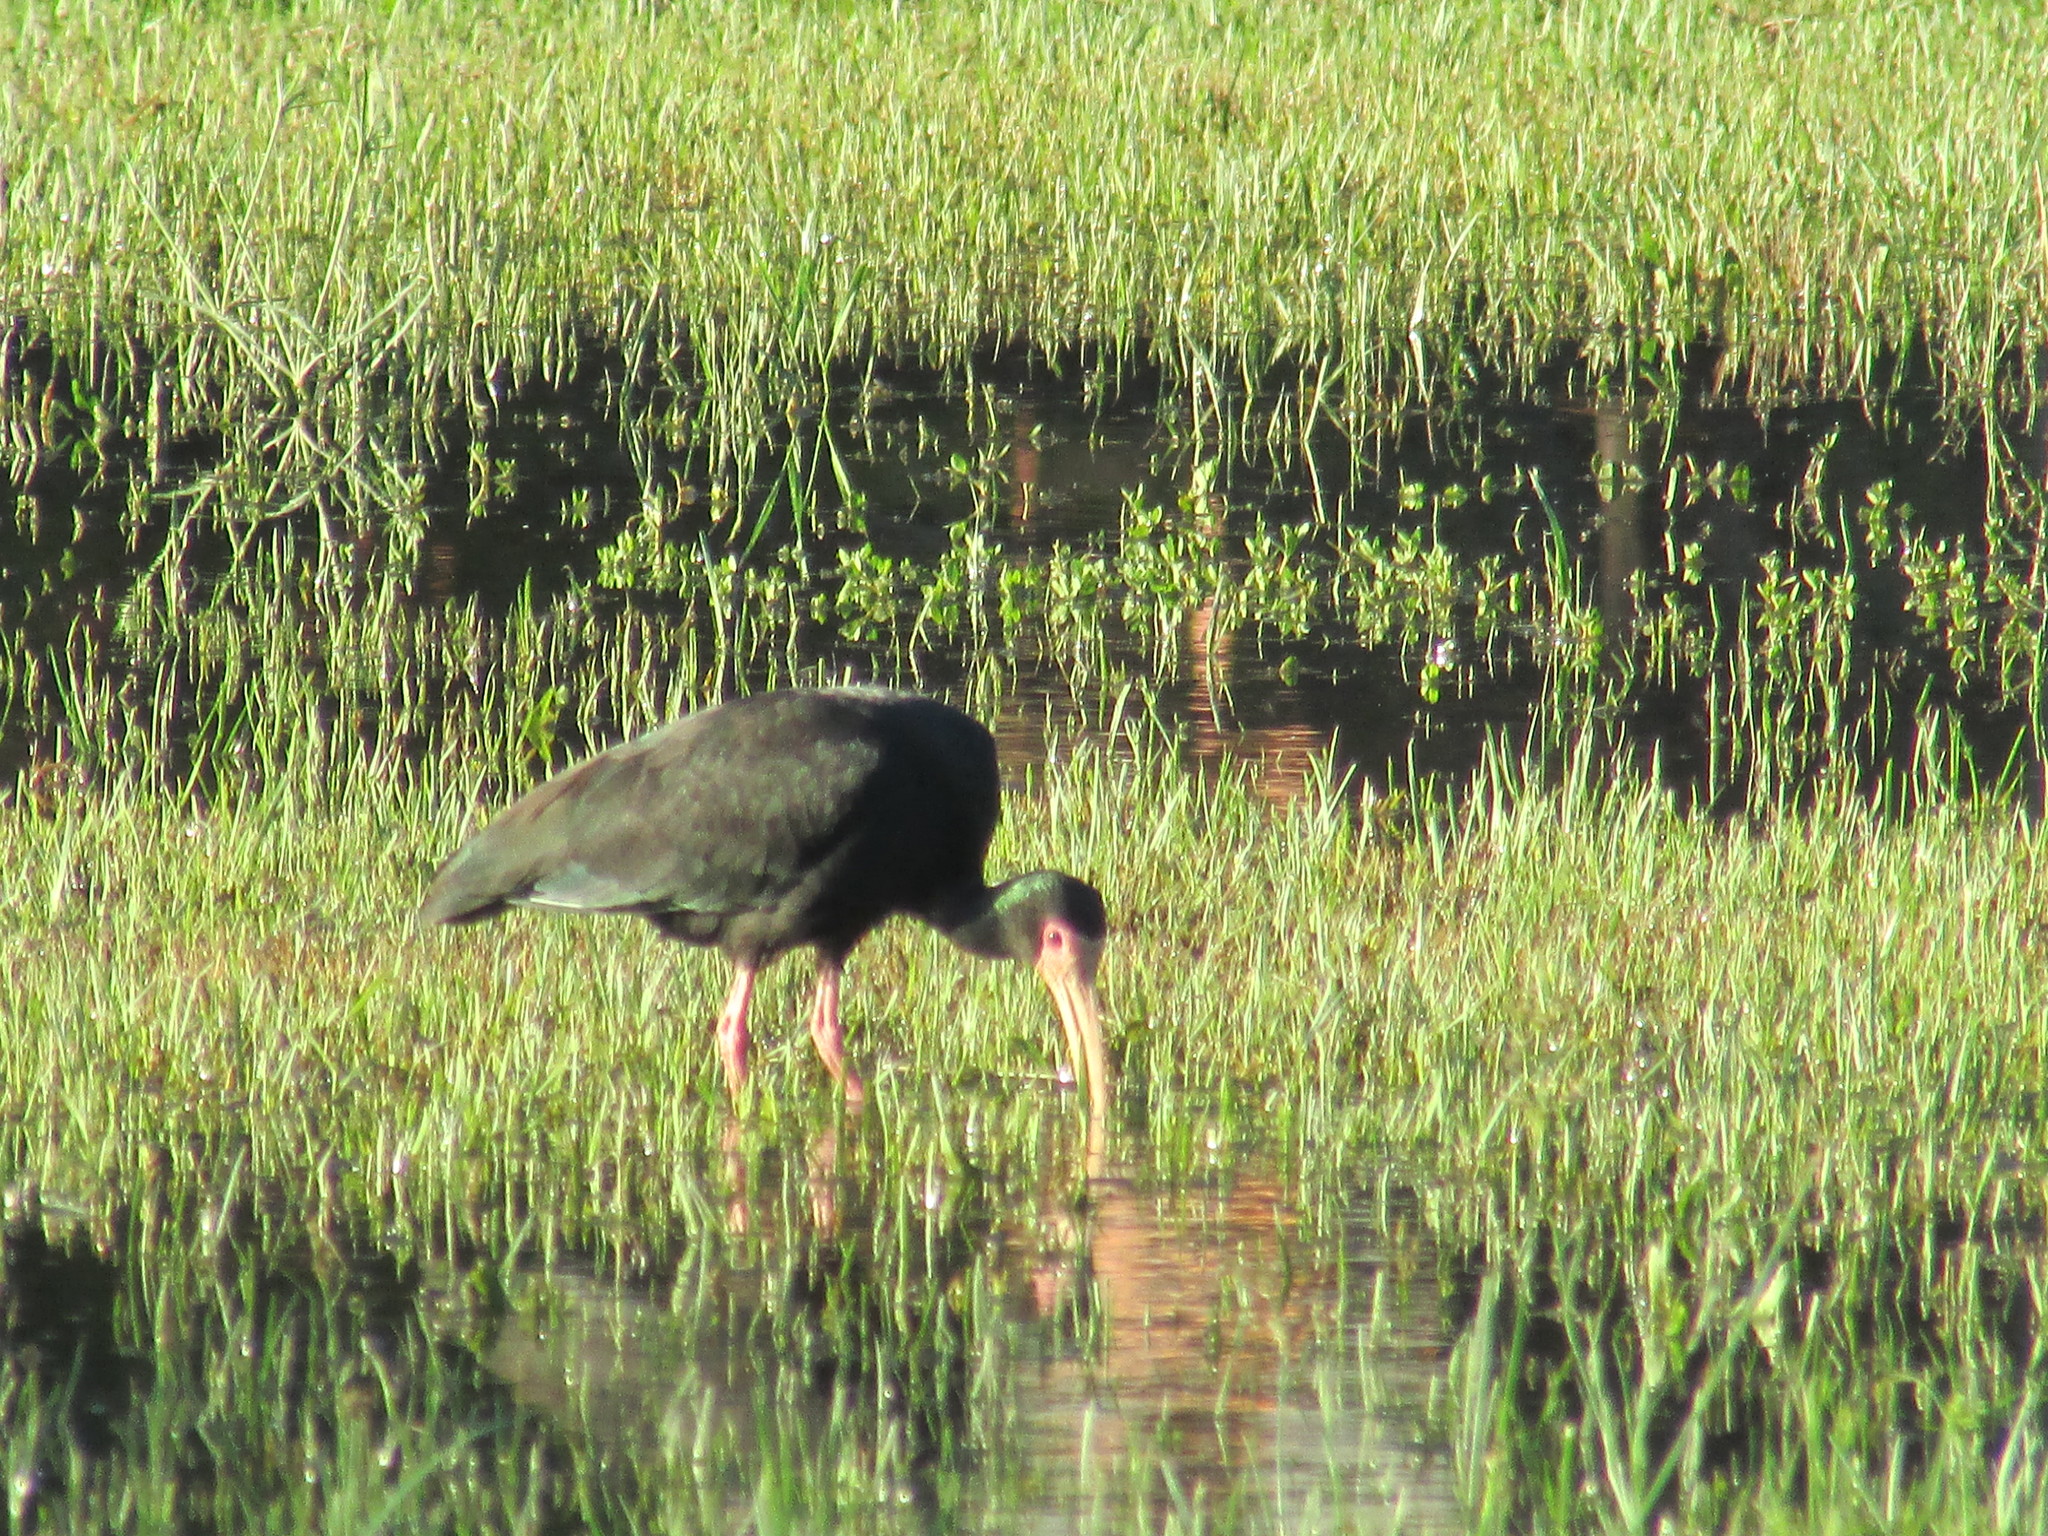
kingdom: Animalia
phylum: Chordata
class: Aves
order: Pelecaniformes
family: Threskiornithidae
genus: Phimosus
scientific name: Phimosus infuscatus
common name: Bare-faced ibis
